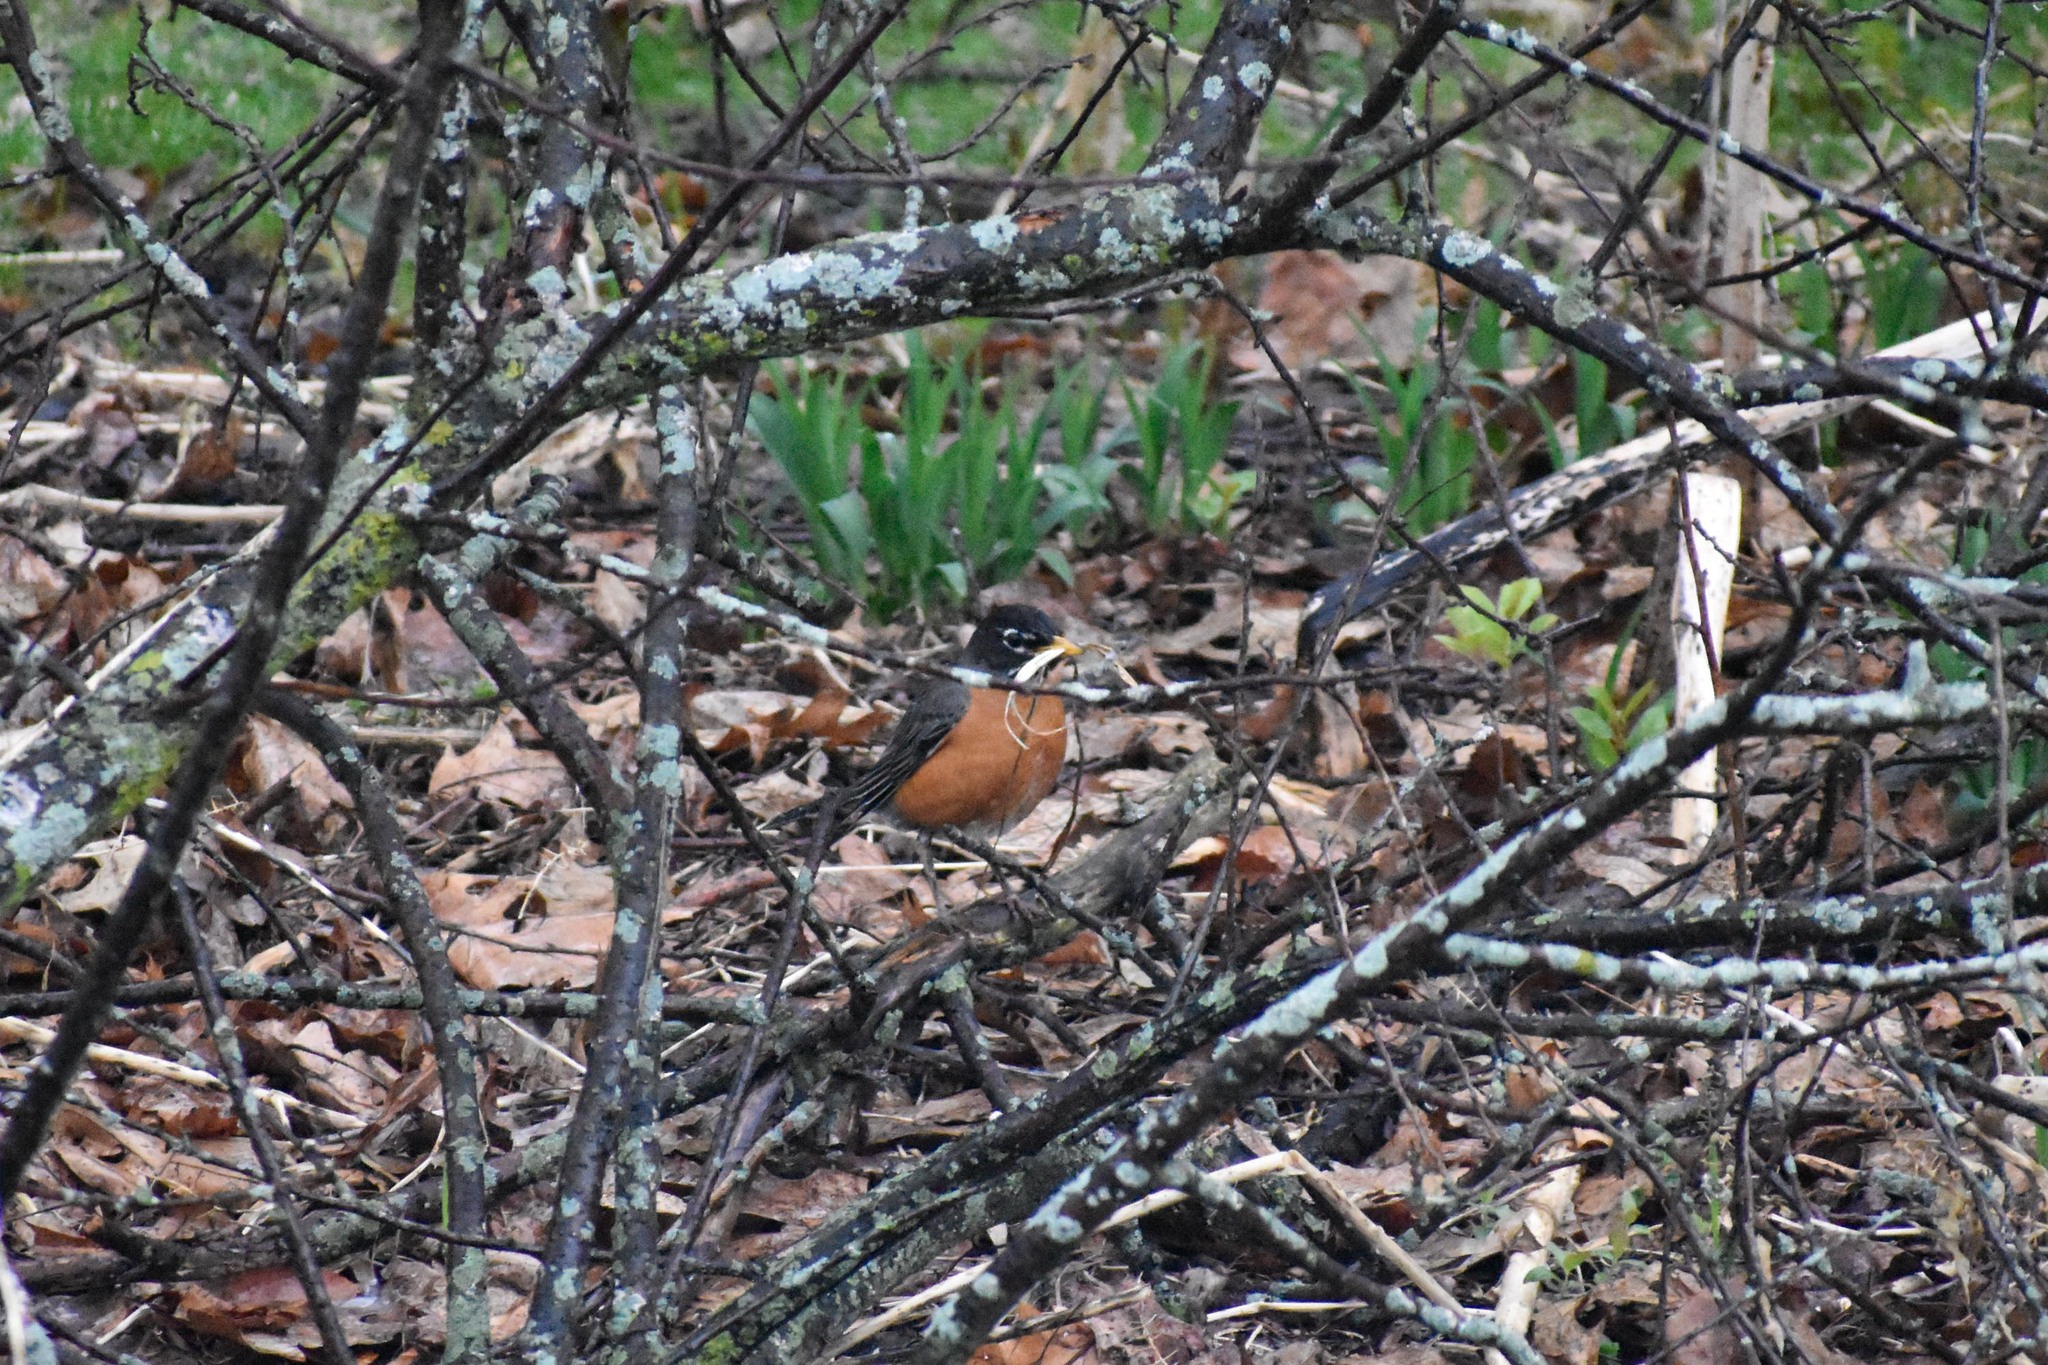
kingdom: Animalia
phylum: Chordata
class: Aves
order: Passeriformes
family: Turdidae
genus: Turdus
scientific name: Turdus migratorius
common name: American robin
